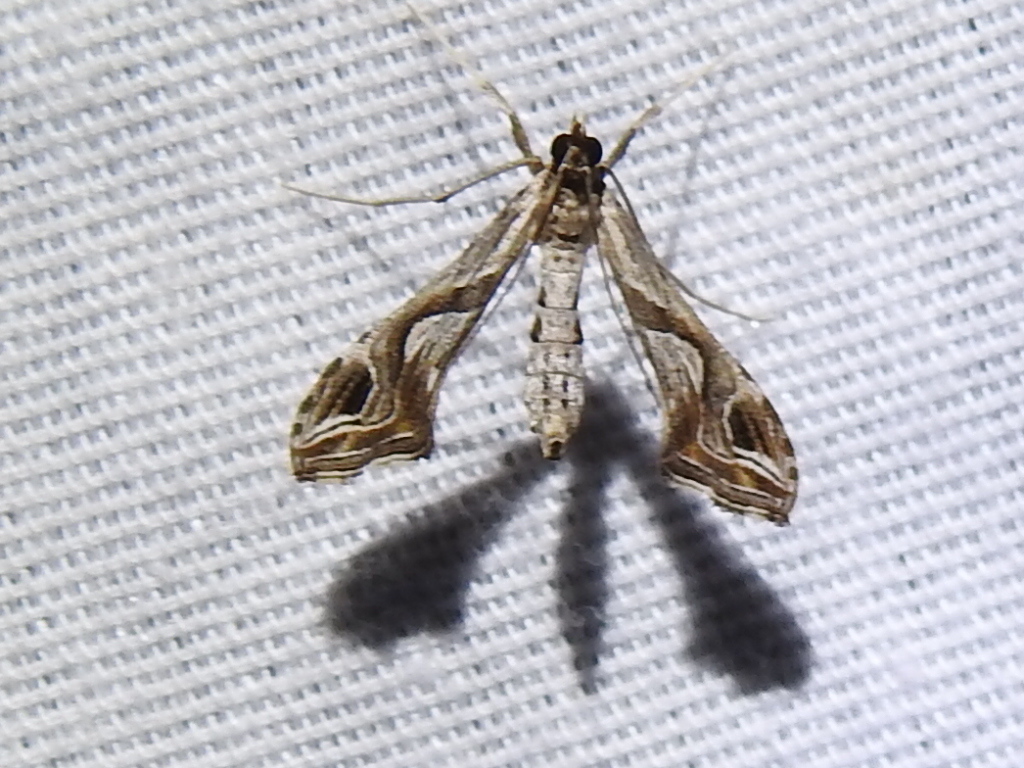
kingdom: Animalia
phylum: Arthropoda
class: Insecta
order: Lepidoptera
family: Crambidae
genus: Lineodes
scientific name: Lineodes integra
